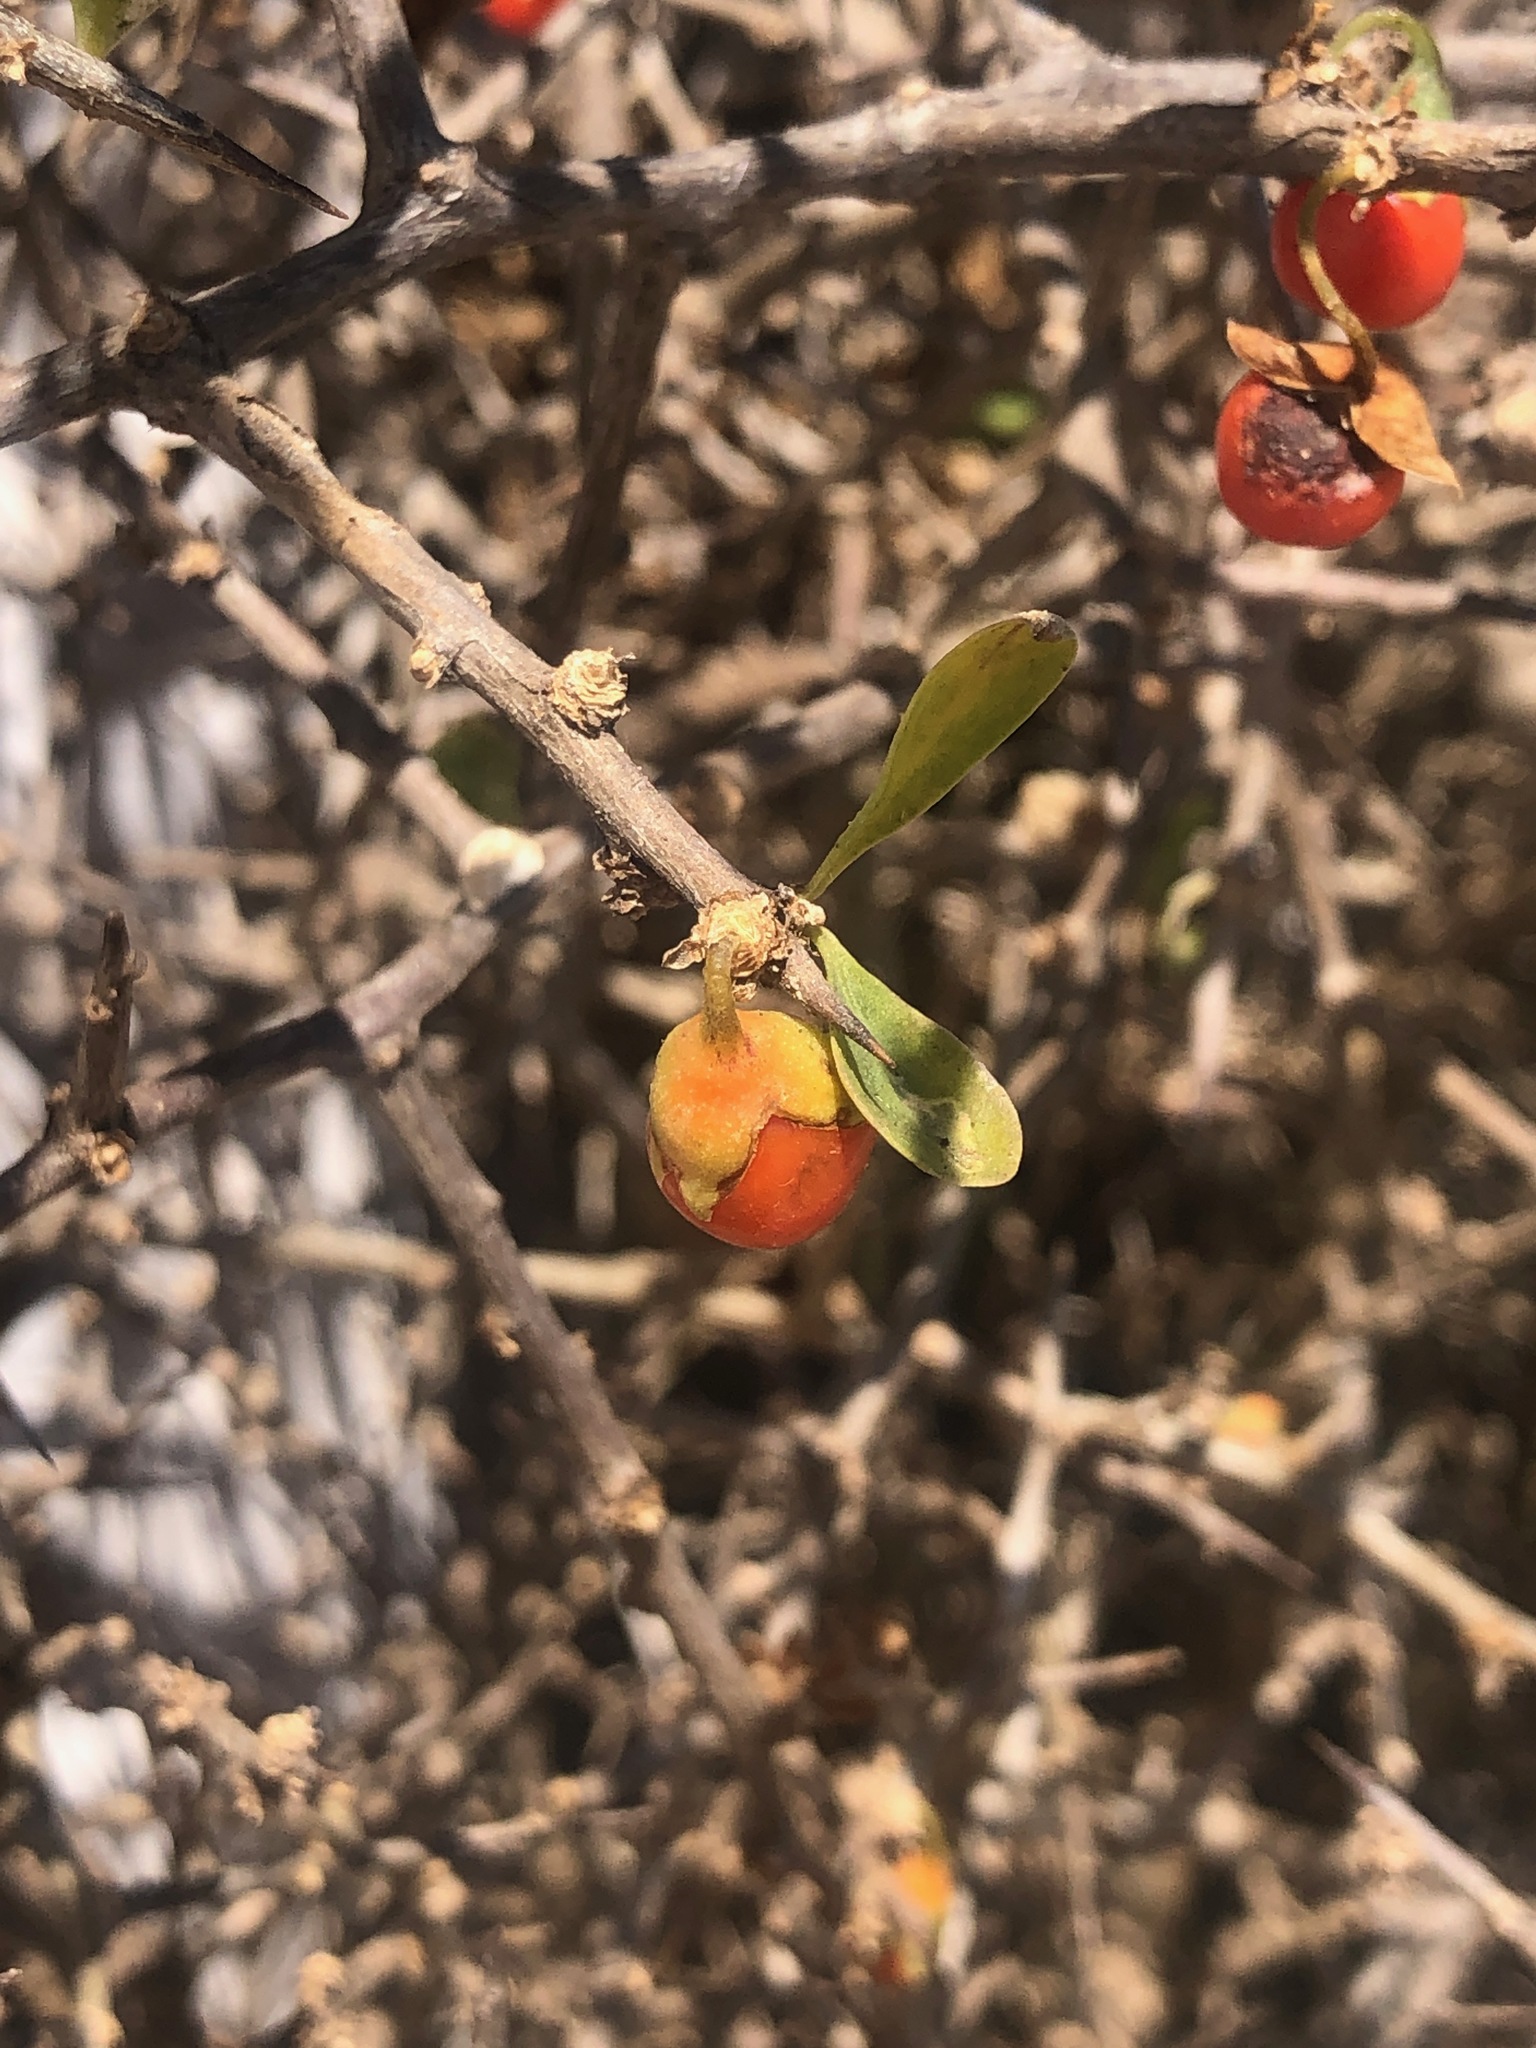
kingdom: Plantae
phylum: Tracheophyta
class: Magnoliopsida
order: Solanales
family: Solanaceae
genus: Lycium
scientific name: Lycium ferocissimum
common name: African boxthorn
